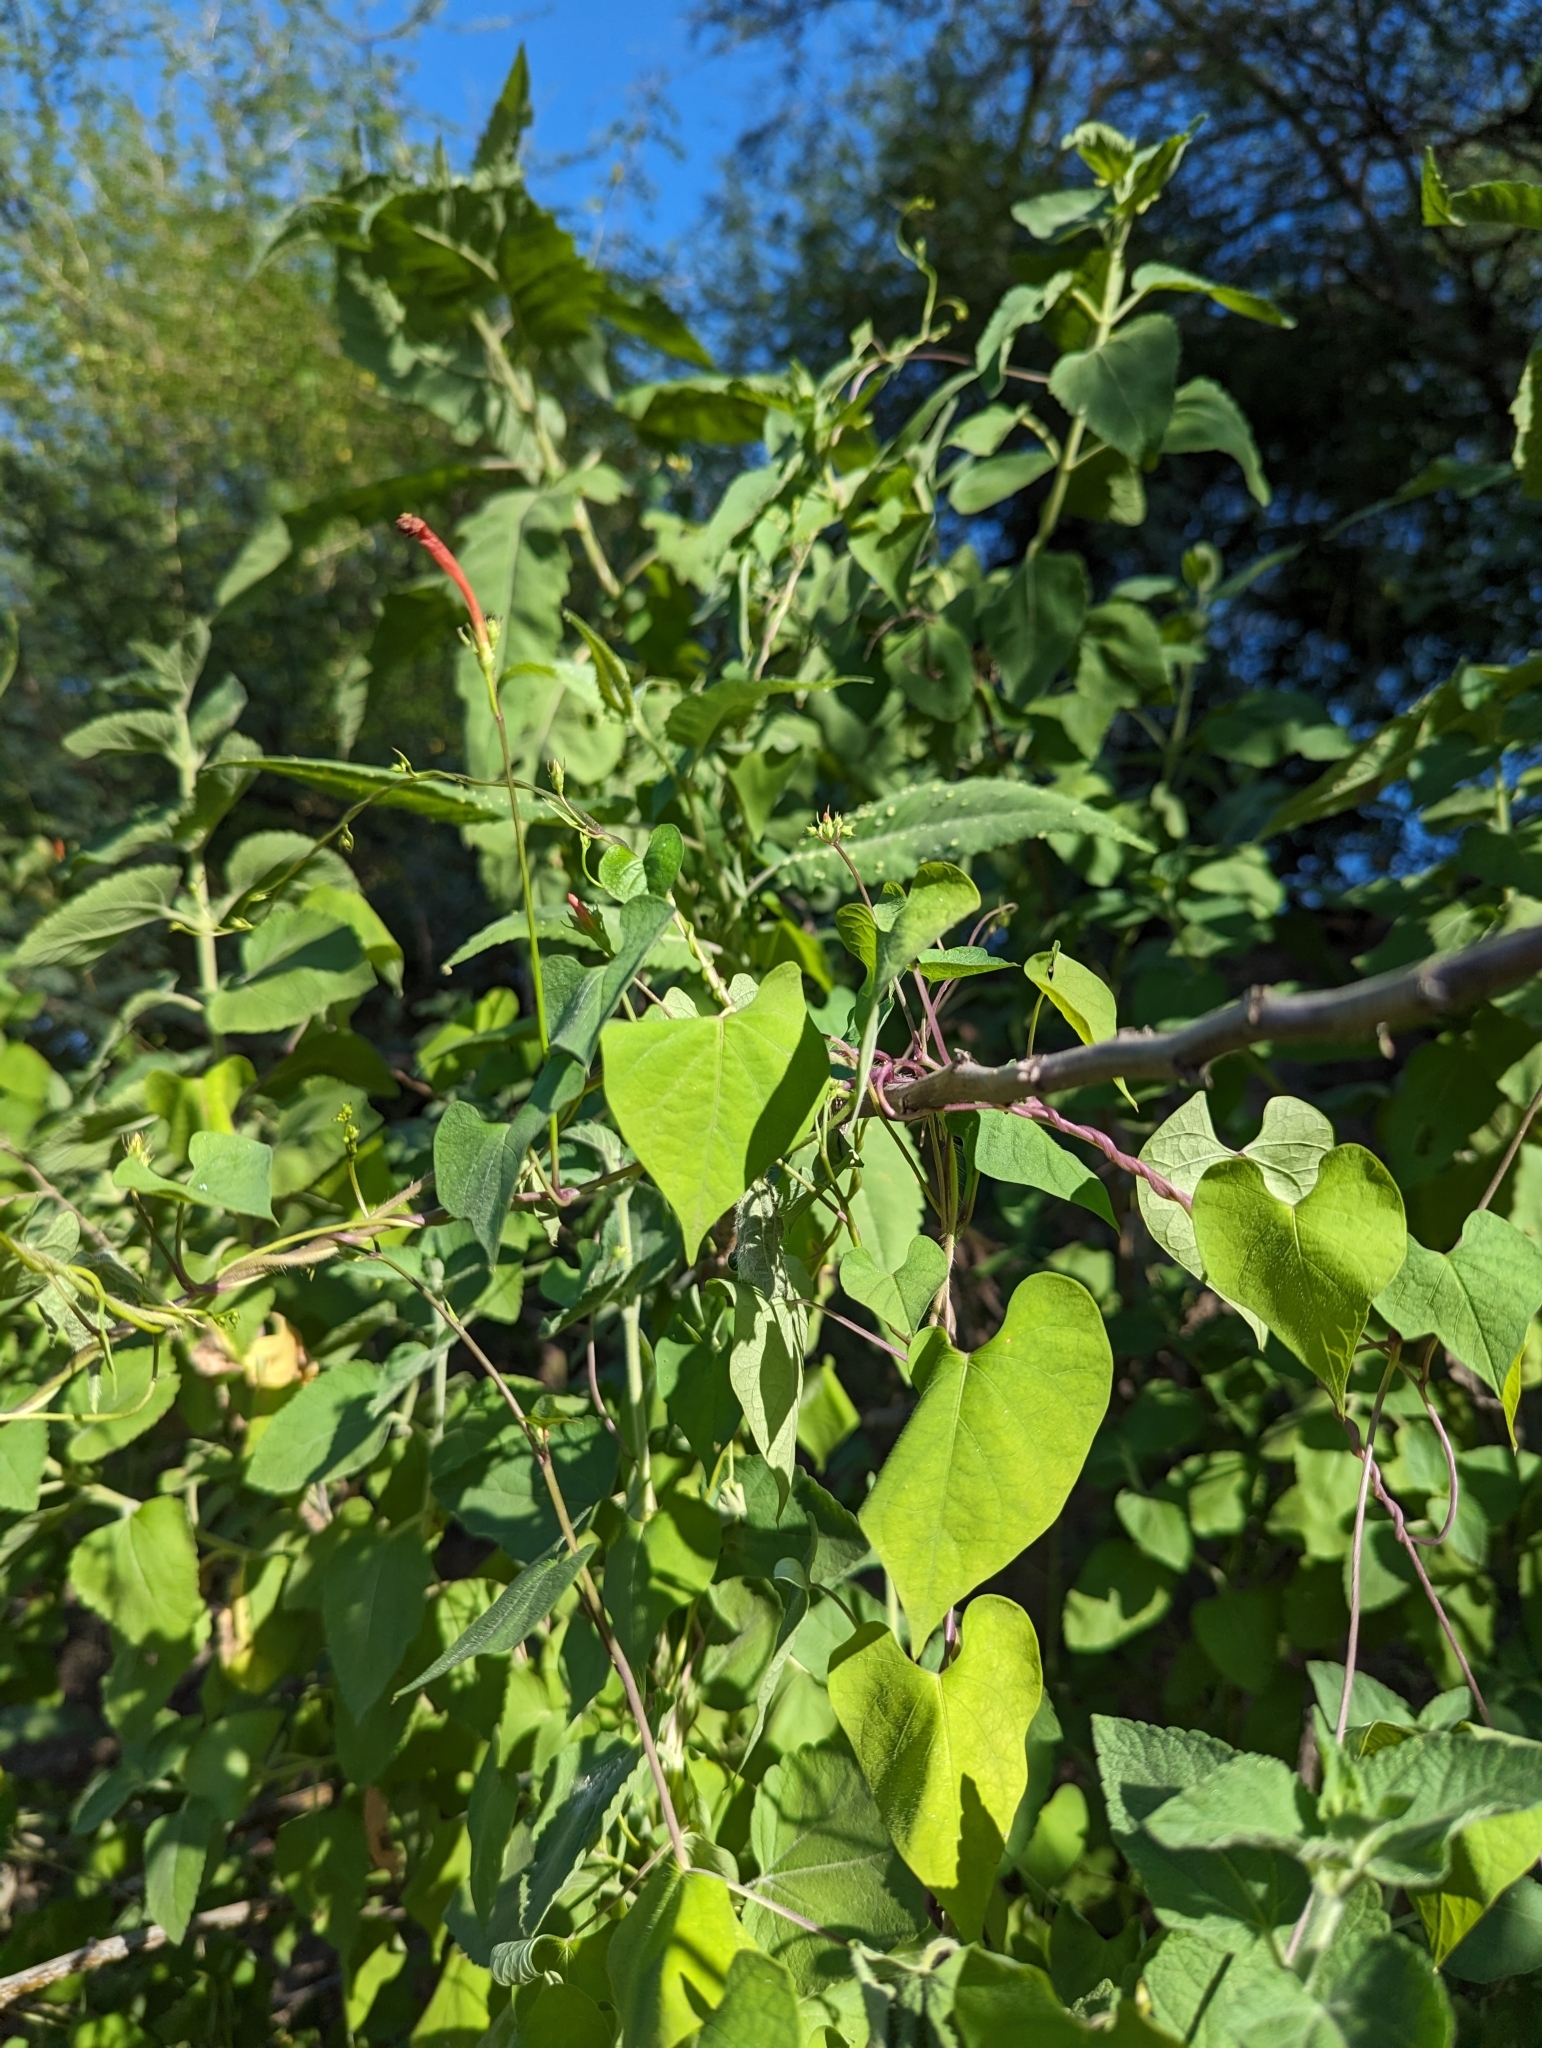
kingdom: Plantae
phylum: Tracheophyta
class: Magnoliopsida
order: Solanales
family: Convolvulaceae
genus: Ipomoea
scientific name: Ipomoea hederifolia
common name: Ivy-leaf morning-glory
